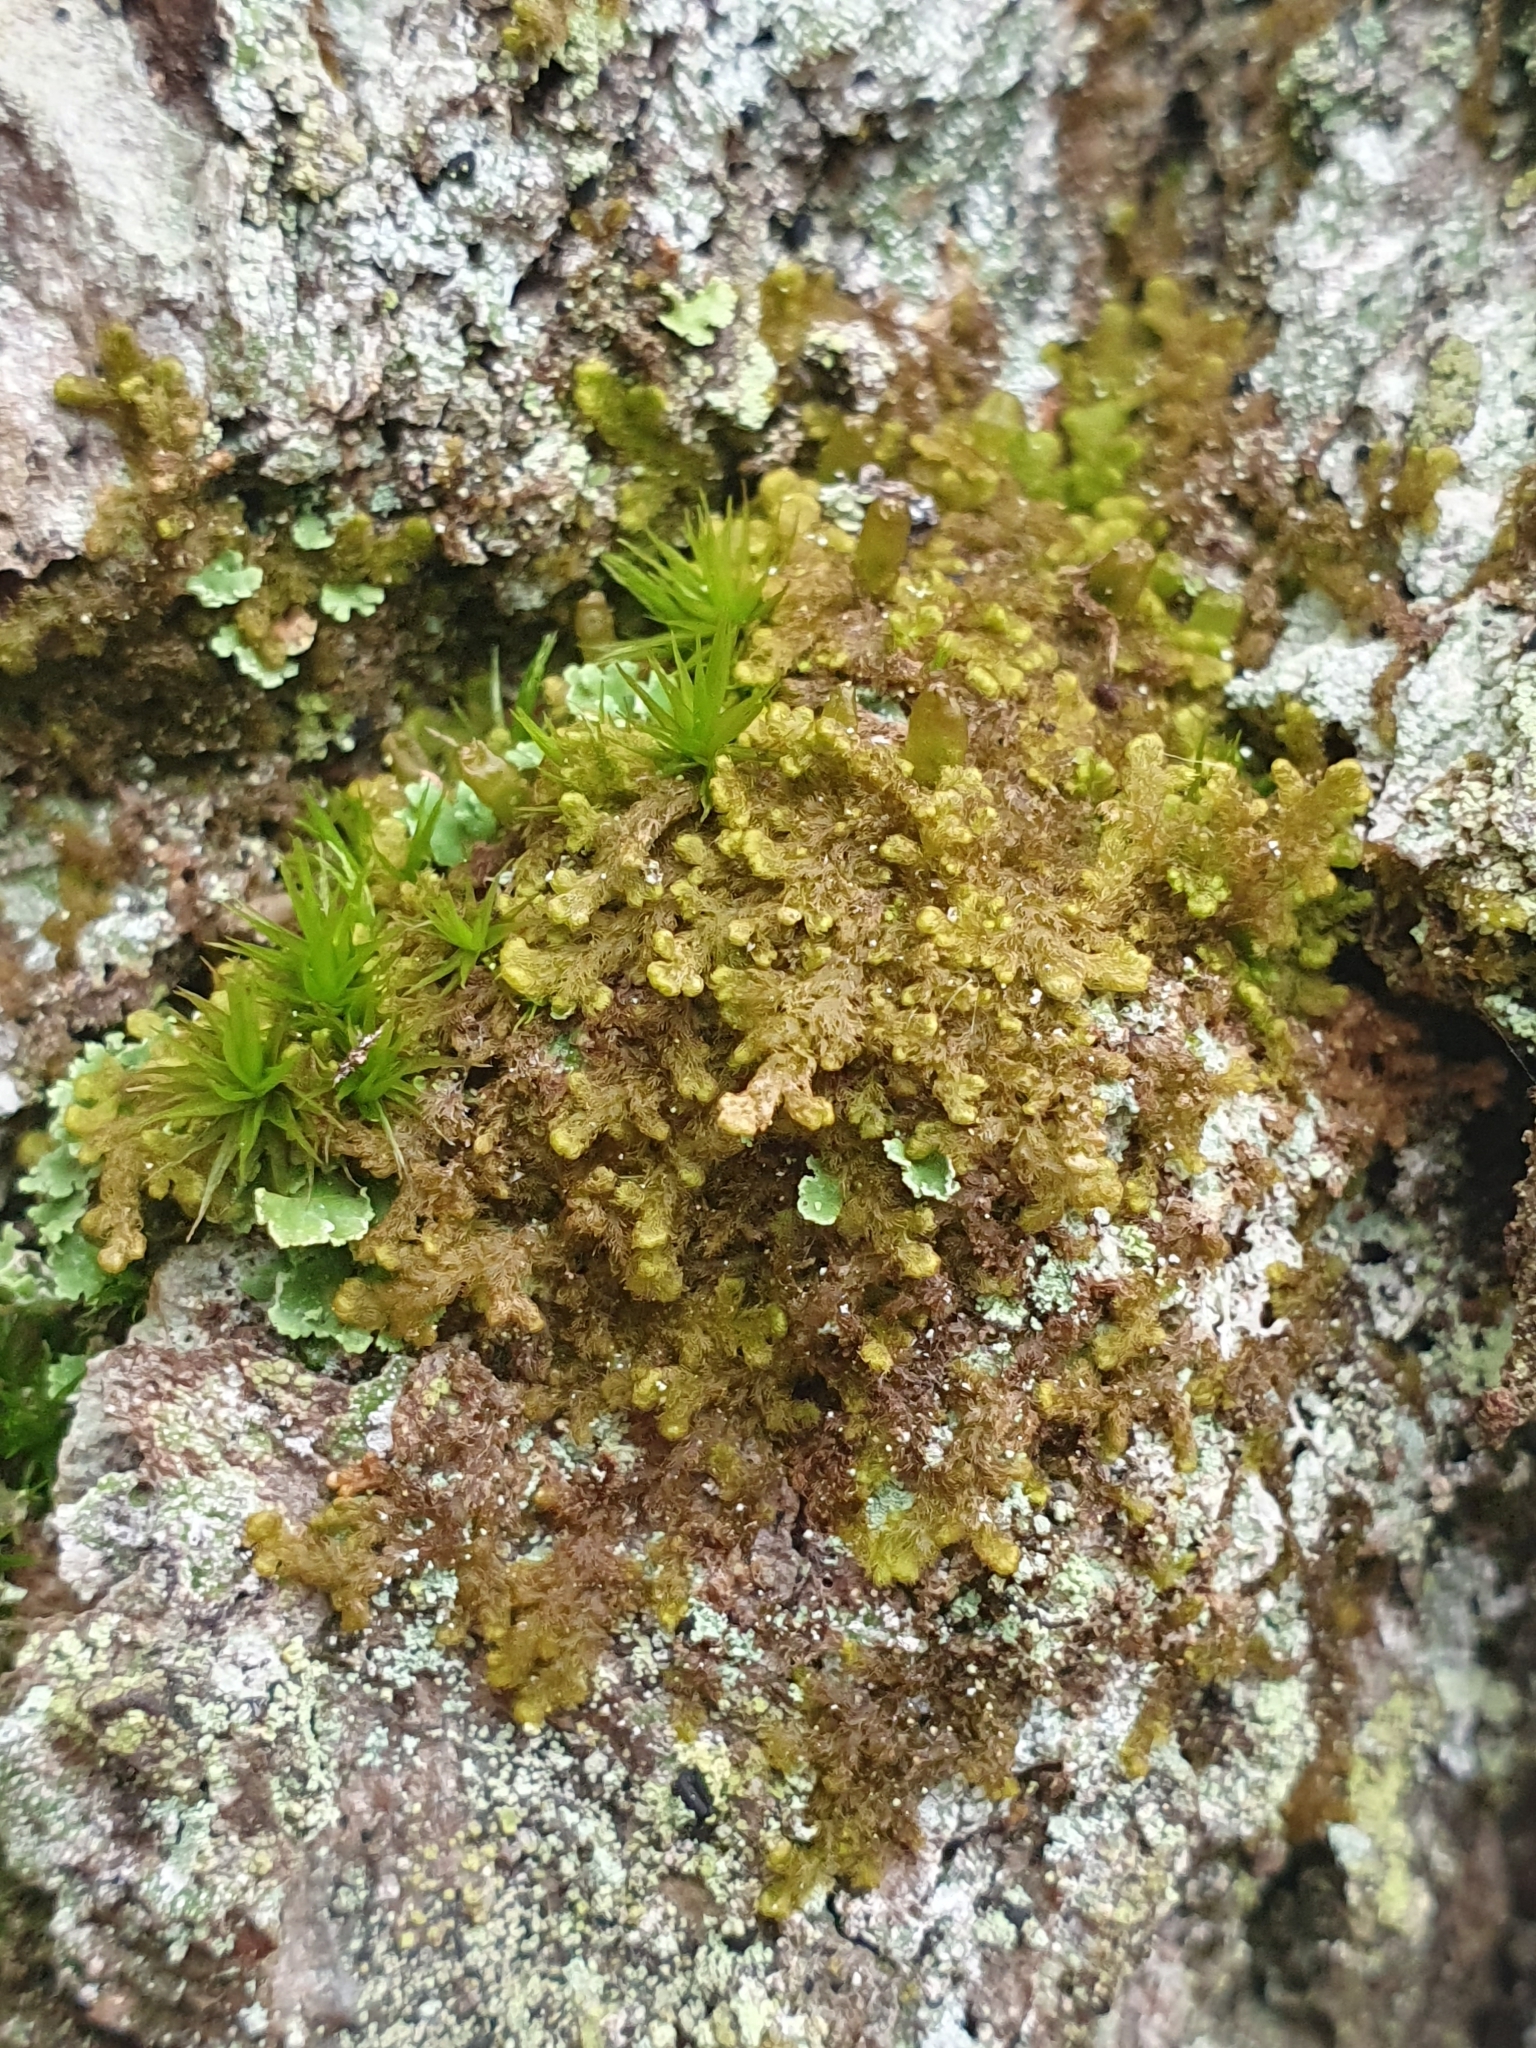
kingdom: Plantae
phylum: Marchantiophyta
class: Jungermanniopsida
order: Ptilidiales
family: Ptilidiaceae
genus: Ptilidium
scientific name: Ptilidium pulcherrimum
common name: Tree fringewort
